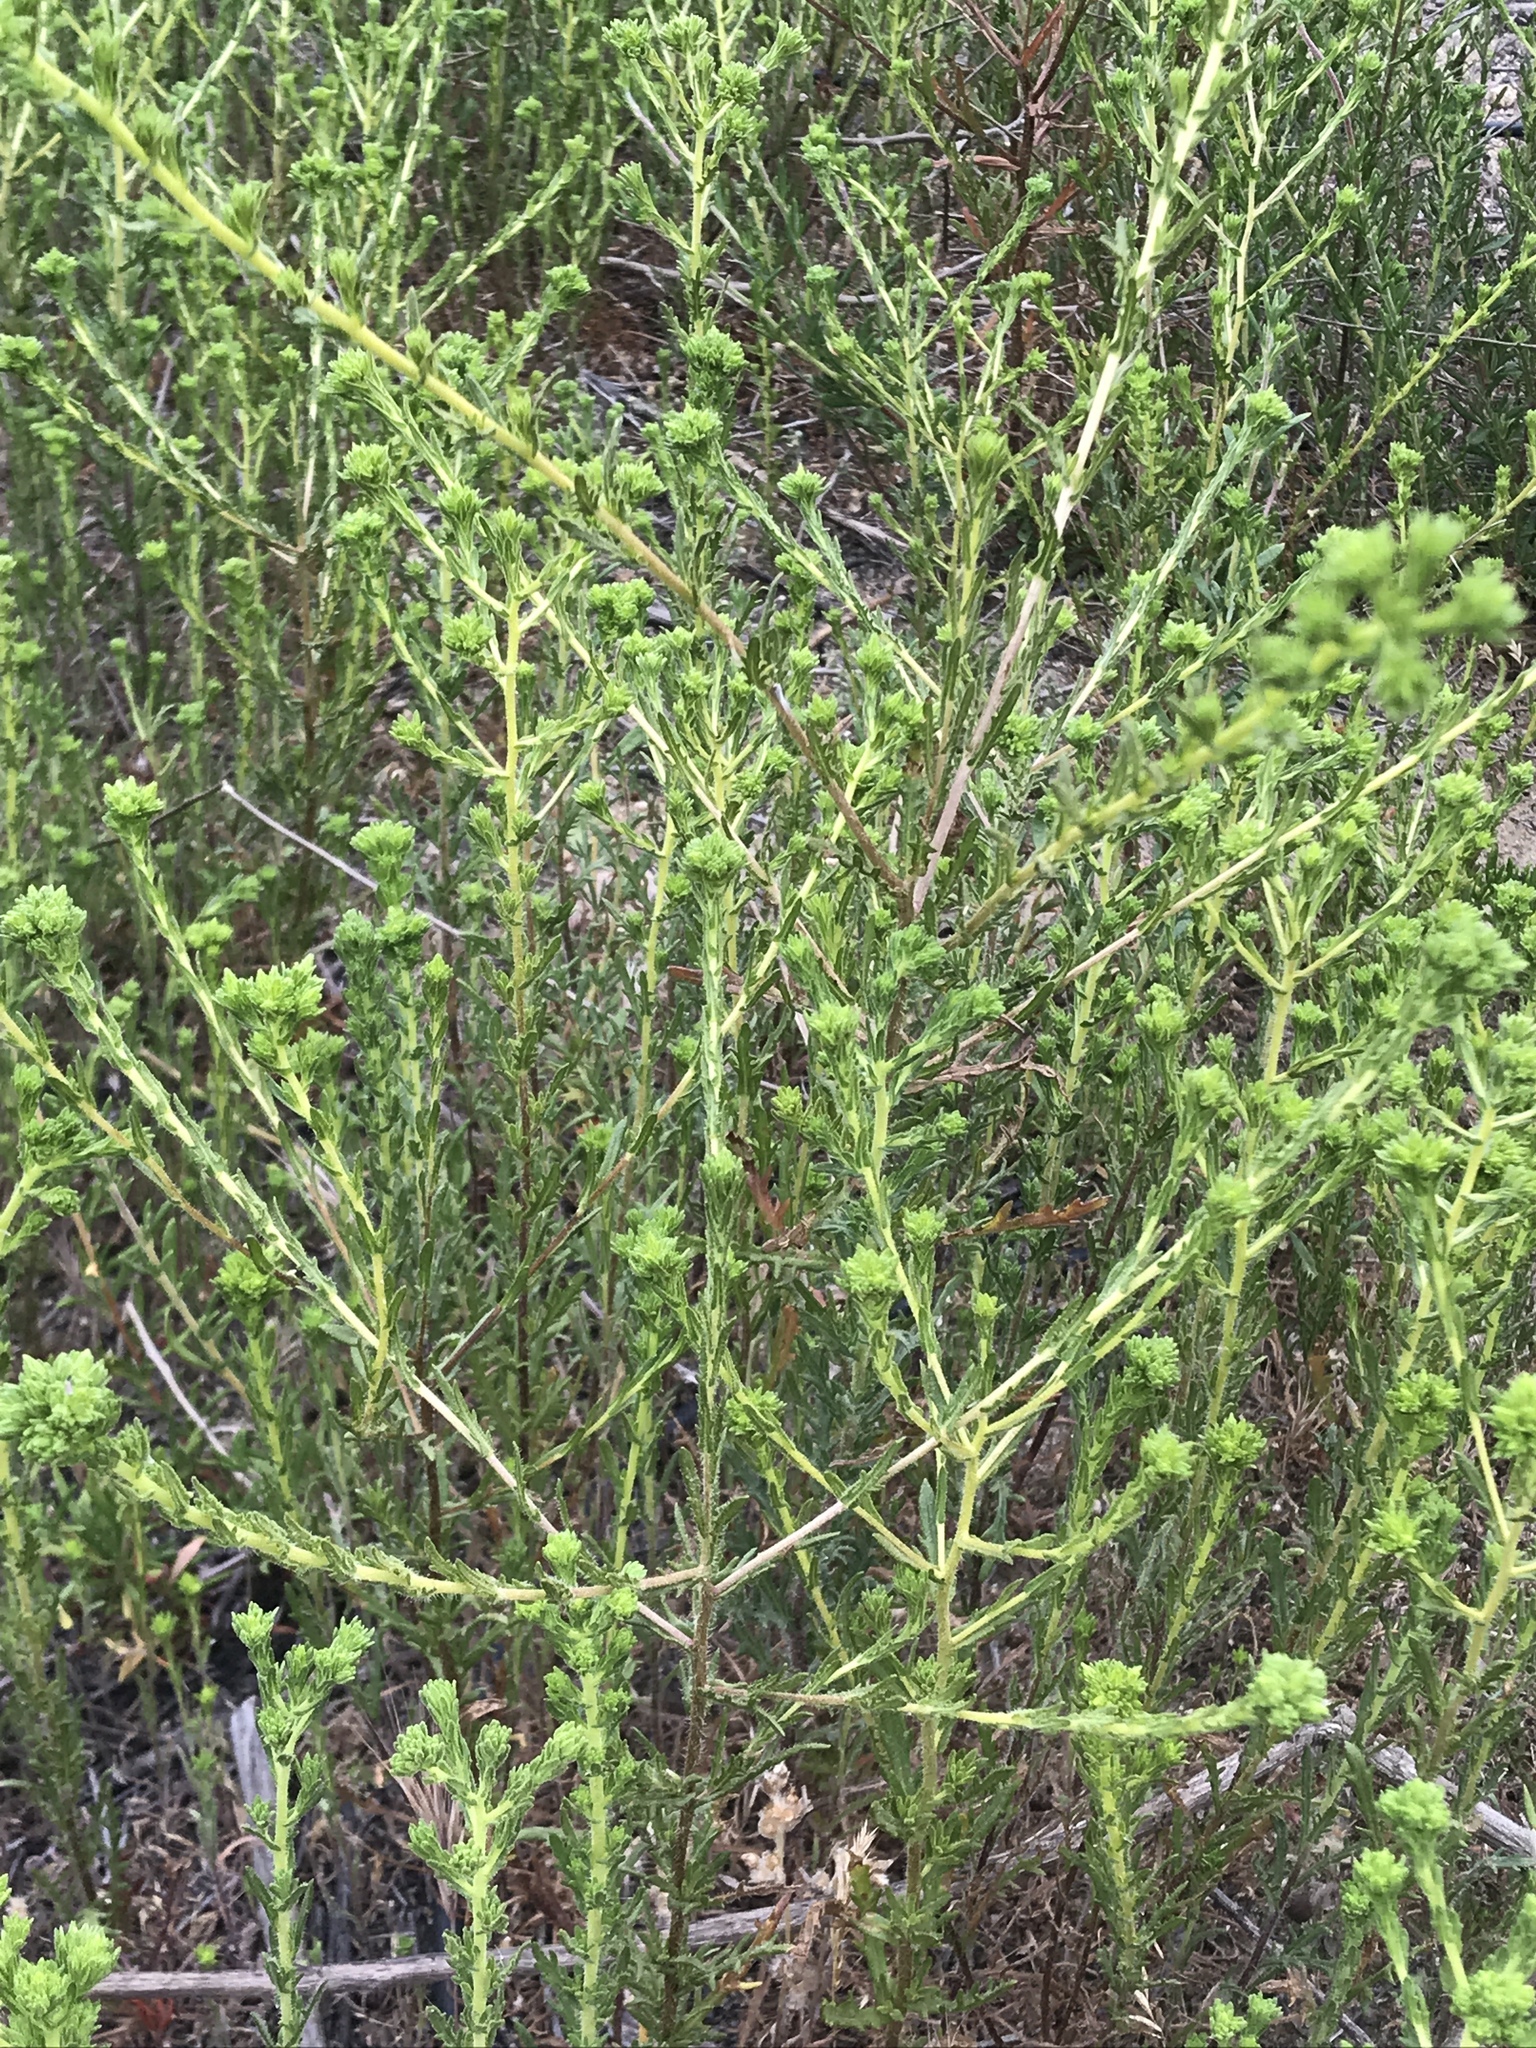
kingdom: Plantae
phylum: Tracheophyta
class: Magnoliopsida
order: Caryophyllales
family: Polygonaceae
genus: Eriogonum
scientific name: Eriogonum fasciculatum
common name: California wild buckwheat
